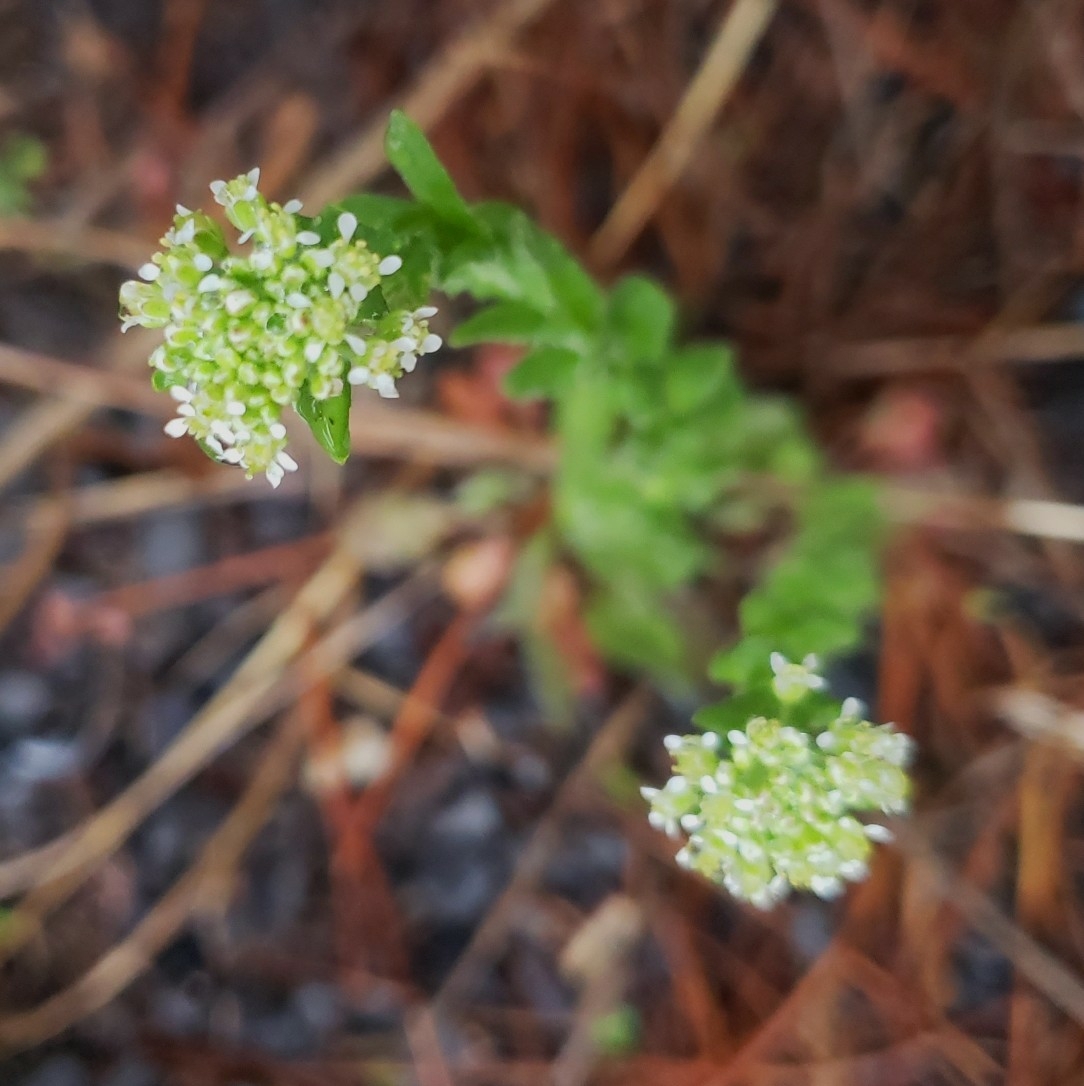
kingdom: Plantae
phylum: Tracheophyta
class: Magnoliopsida
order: Brassicales
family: Brassicaceae
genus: Lepidium
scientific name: Lepidium campestre
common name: Field pepperwort
